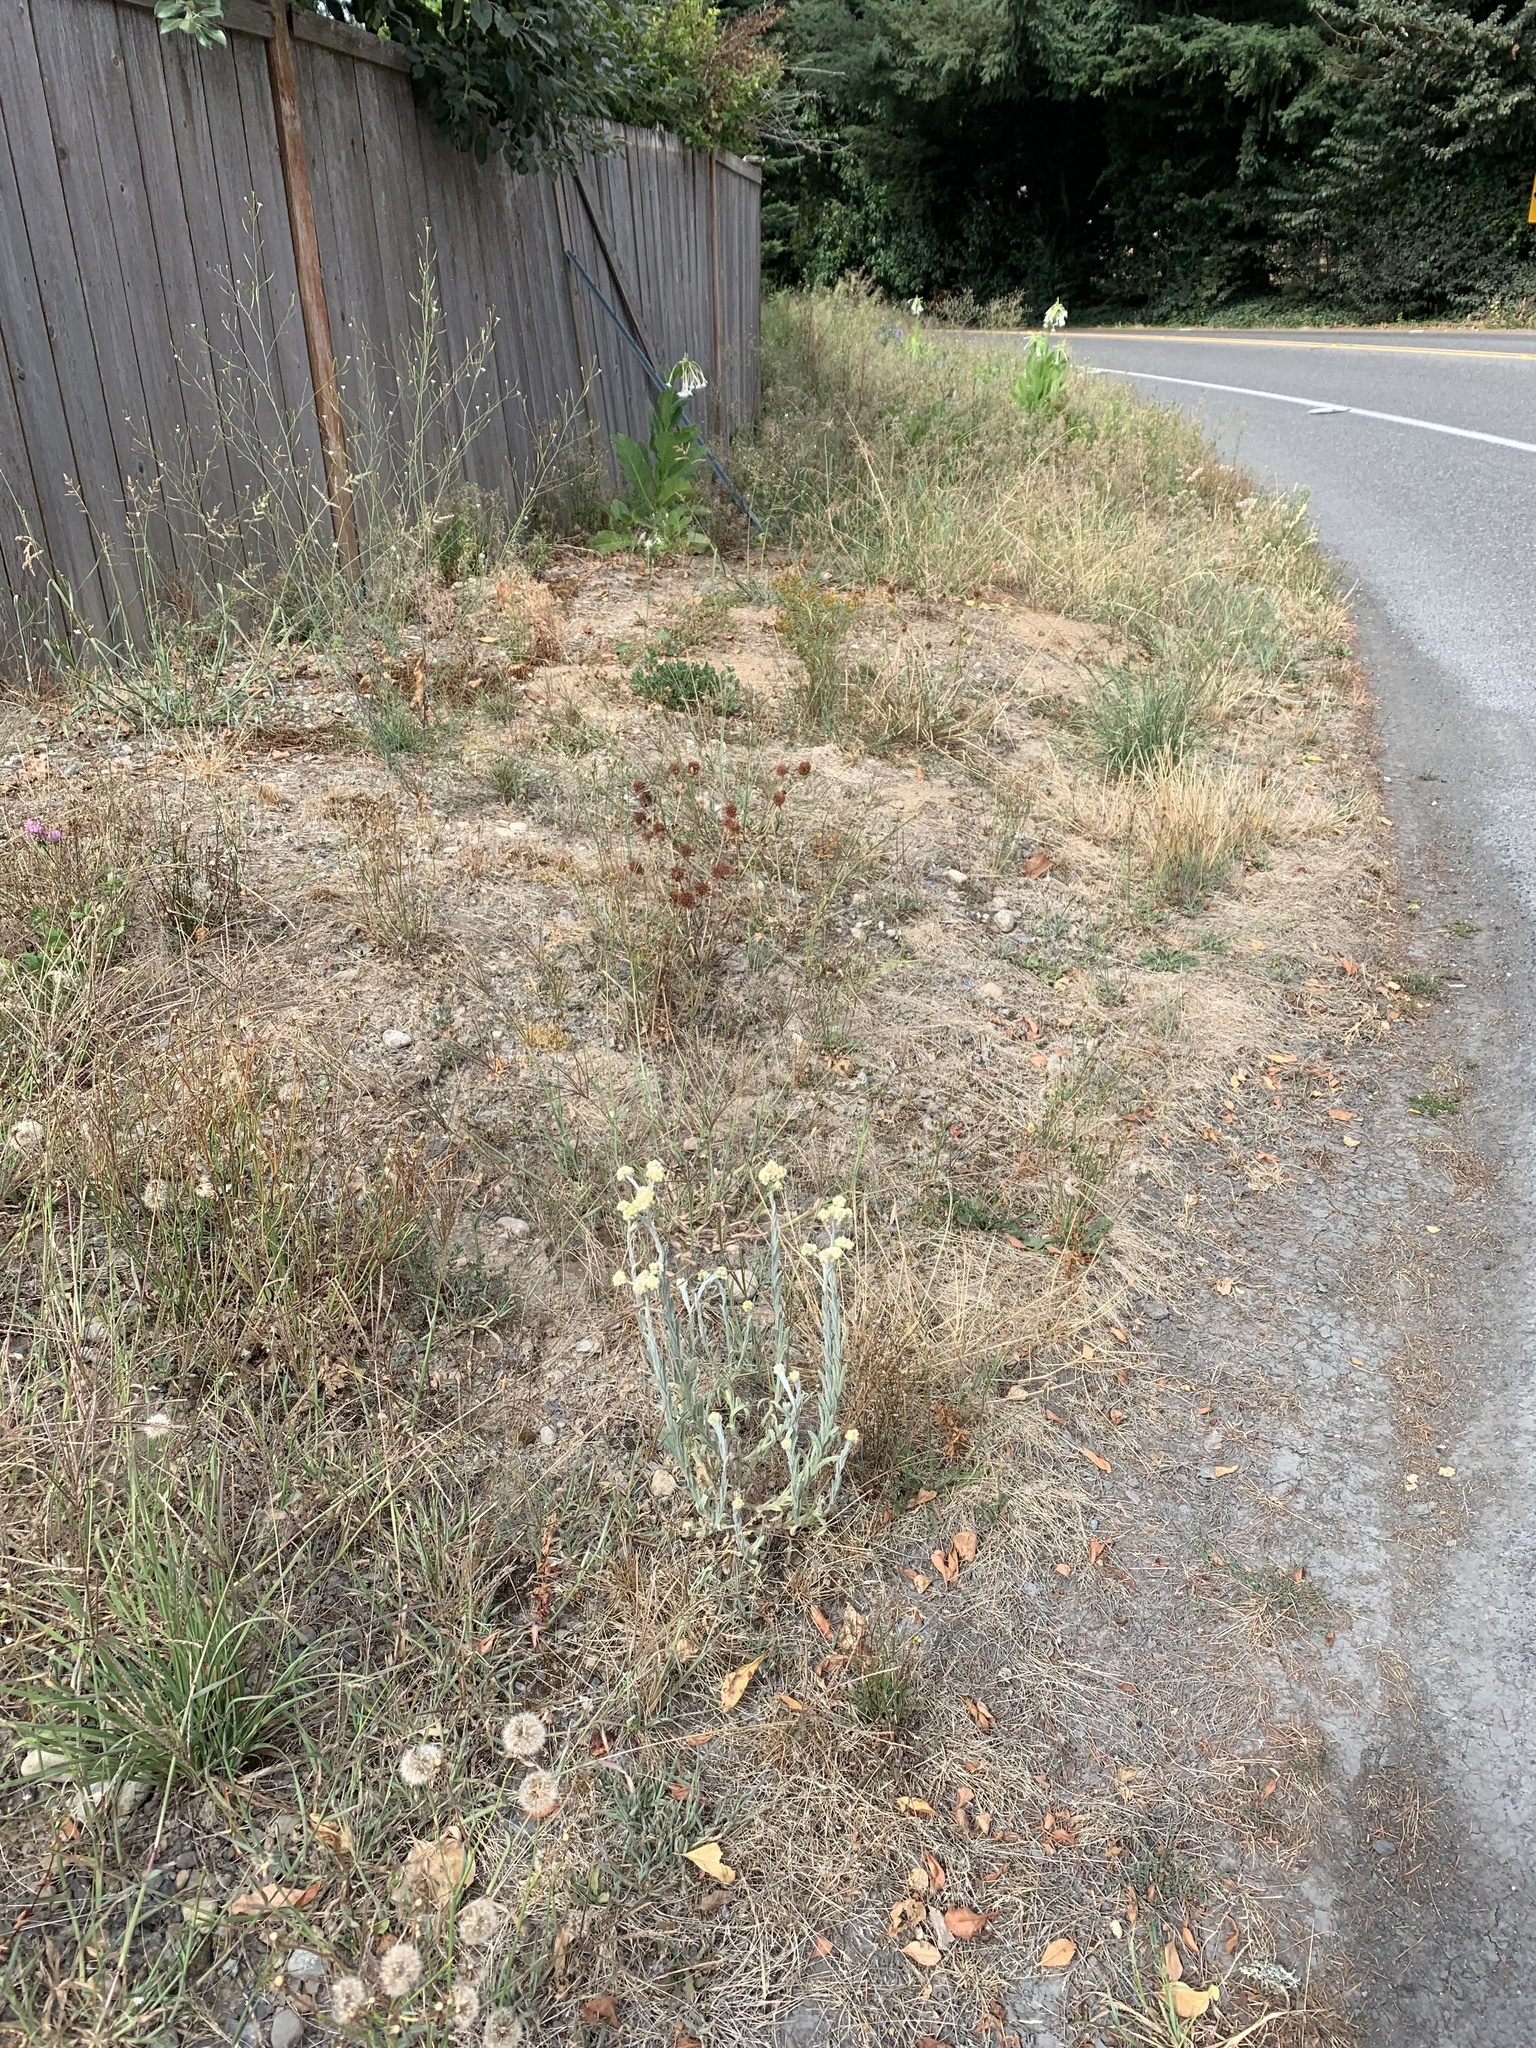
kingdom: Plantae
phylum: Tracheophyta
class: Magnoliopsida
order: Asterales
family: Asteraceae
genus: Pseudognaphalium
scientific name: Pseudognaphalium stramineum
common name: Cotton-batting-plant
